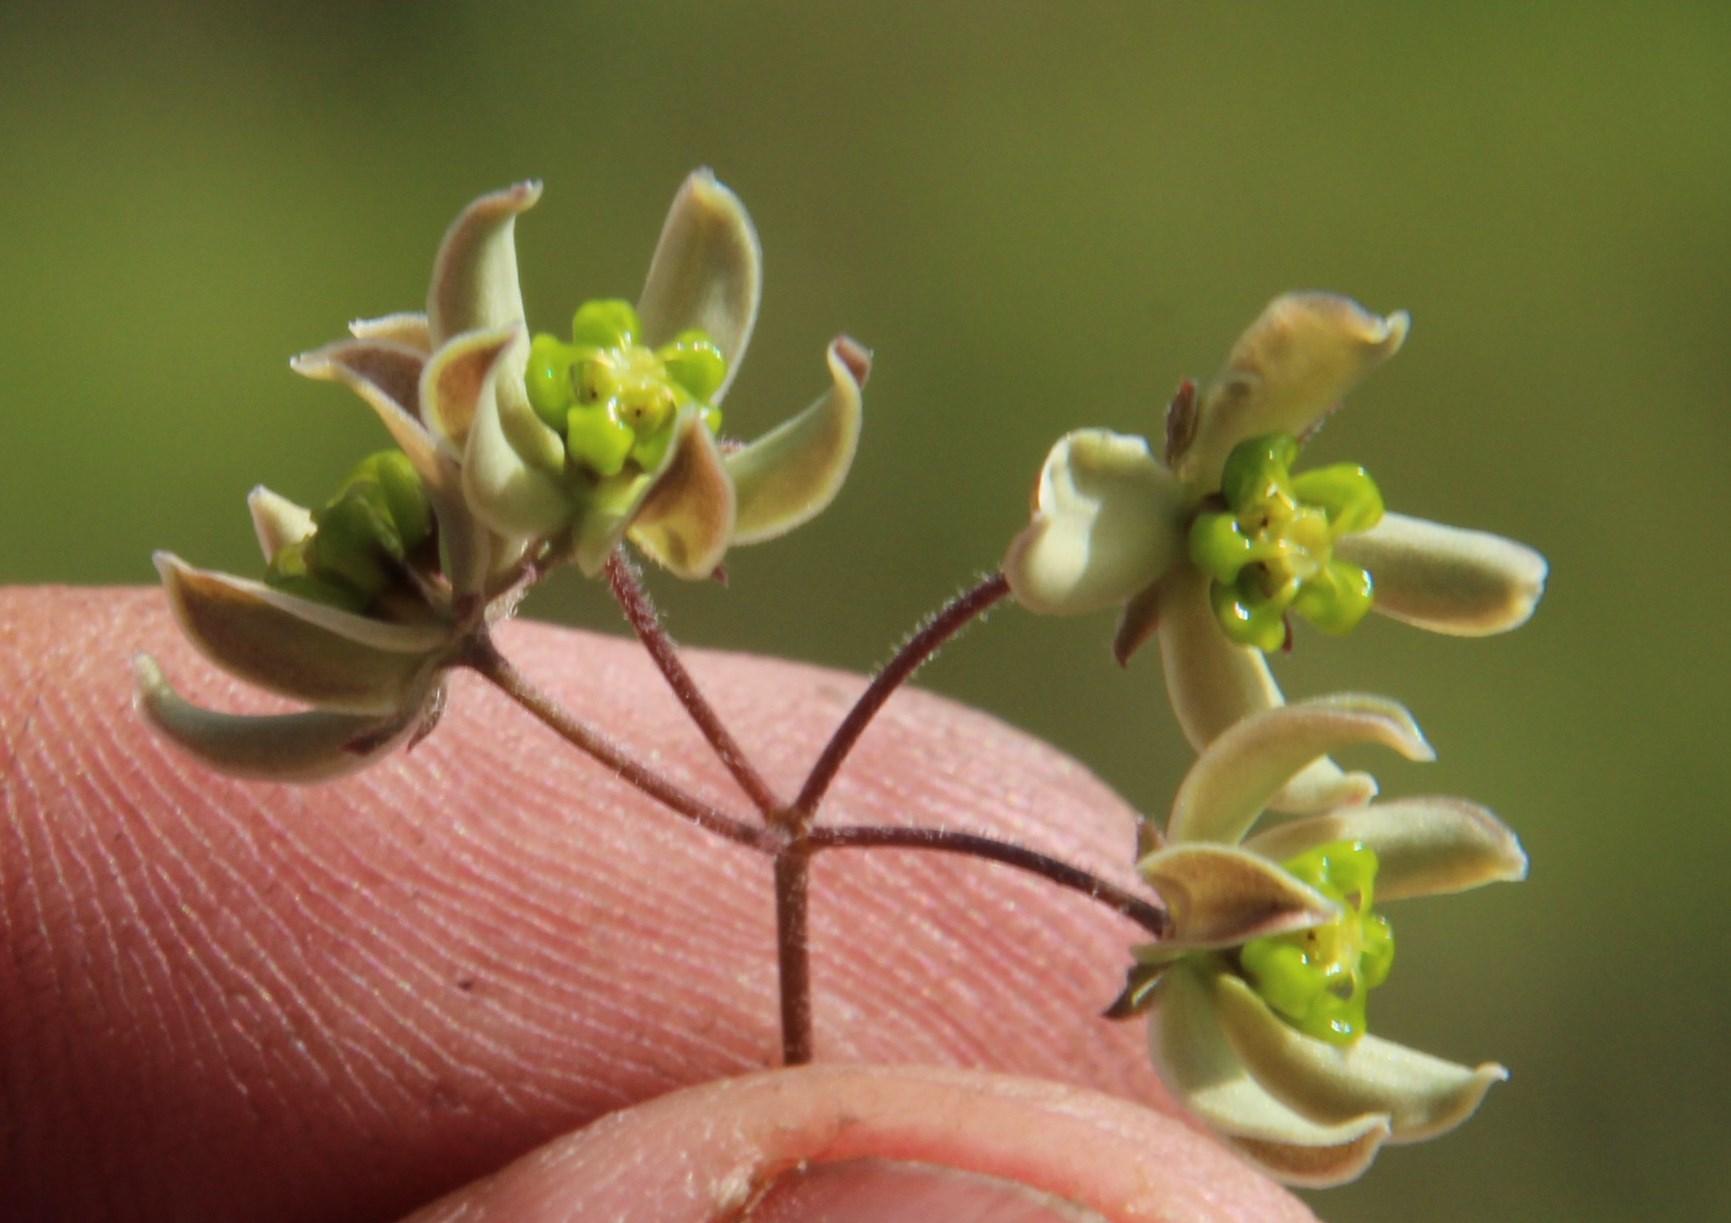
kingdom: Plantae
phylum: Tracheophyta
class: Magnoliopsida
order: Gentianales
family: Apocynaceae
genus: Schizoglossum
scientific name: Schizoglossum linifolium
